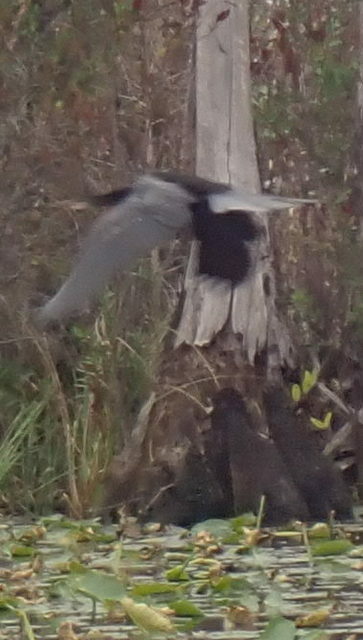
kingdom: Animalia
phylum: Chordata
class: Aves
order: Suliformes
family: Anhingidae
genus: Anhinga
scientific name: Anhinga anhinga
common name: Anhinga
